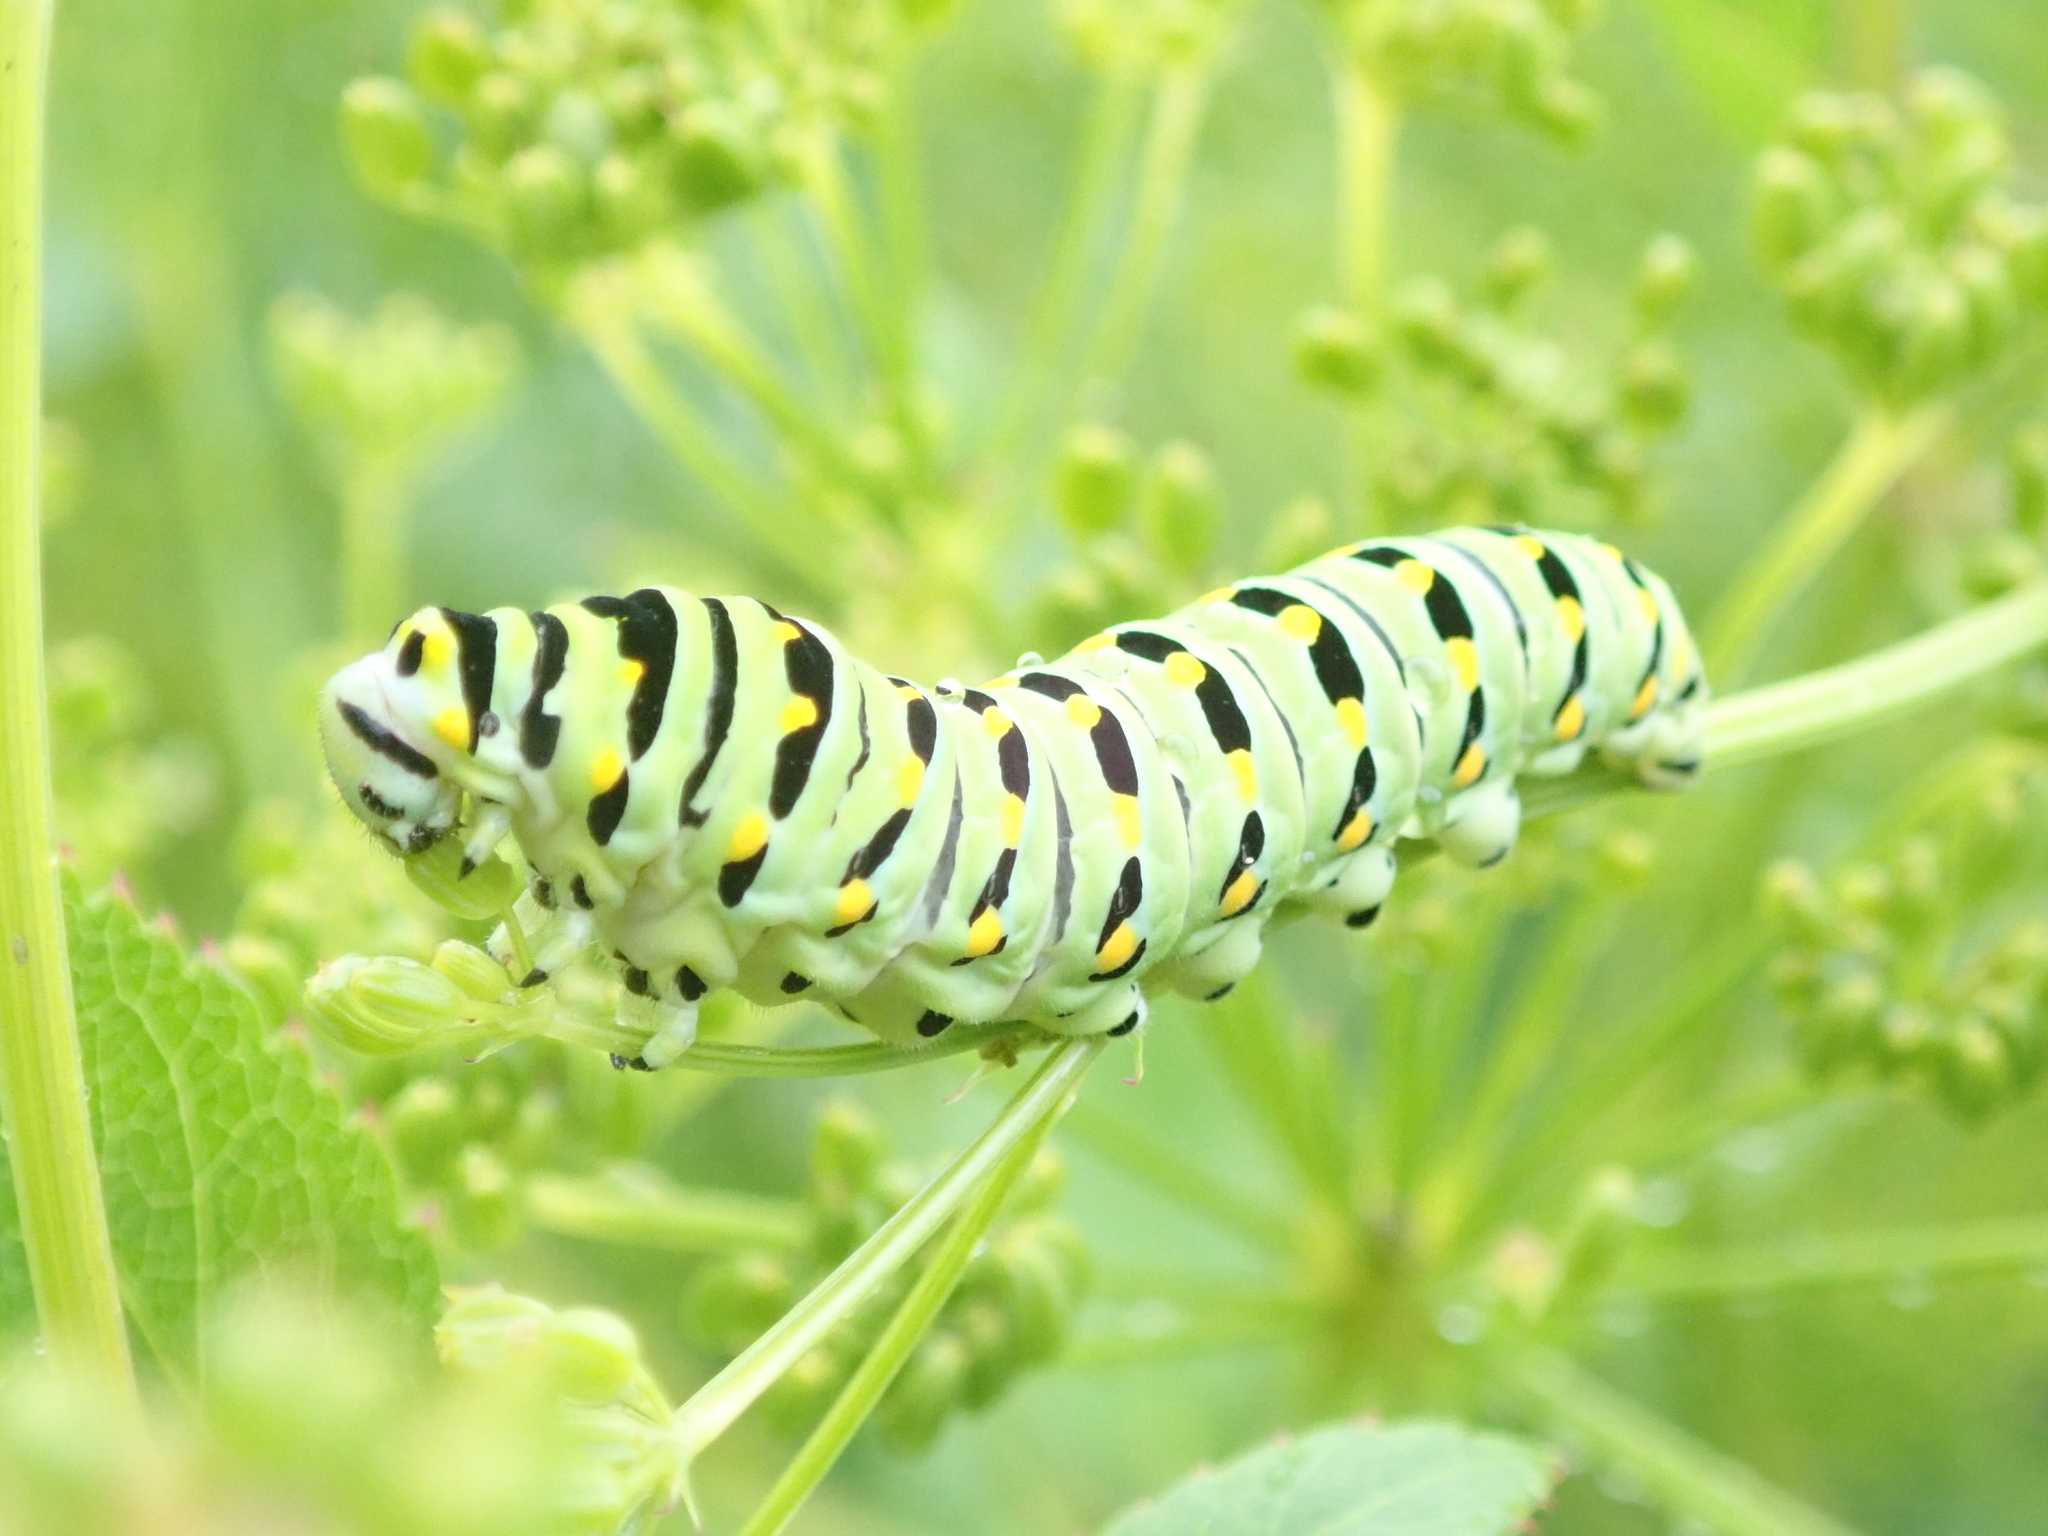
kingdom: Animalia
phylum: Arthropoda
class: Insecta
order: Lepidoptera
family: Papilionidae
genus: Papilio
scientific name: Papilio polyxenes
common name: Black swallowtail
